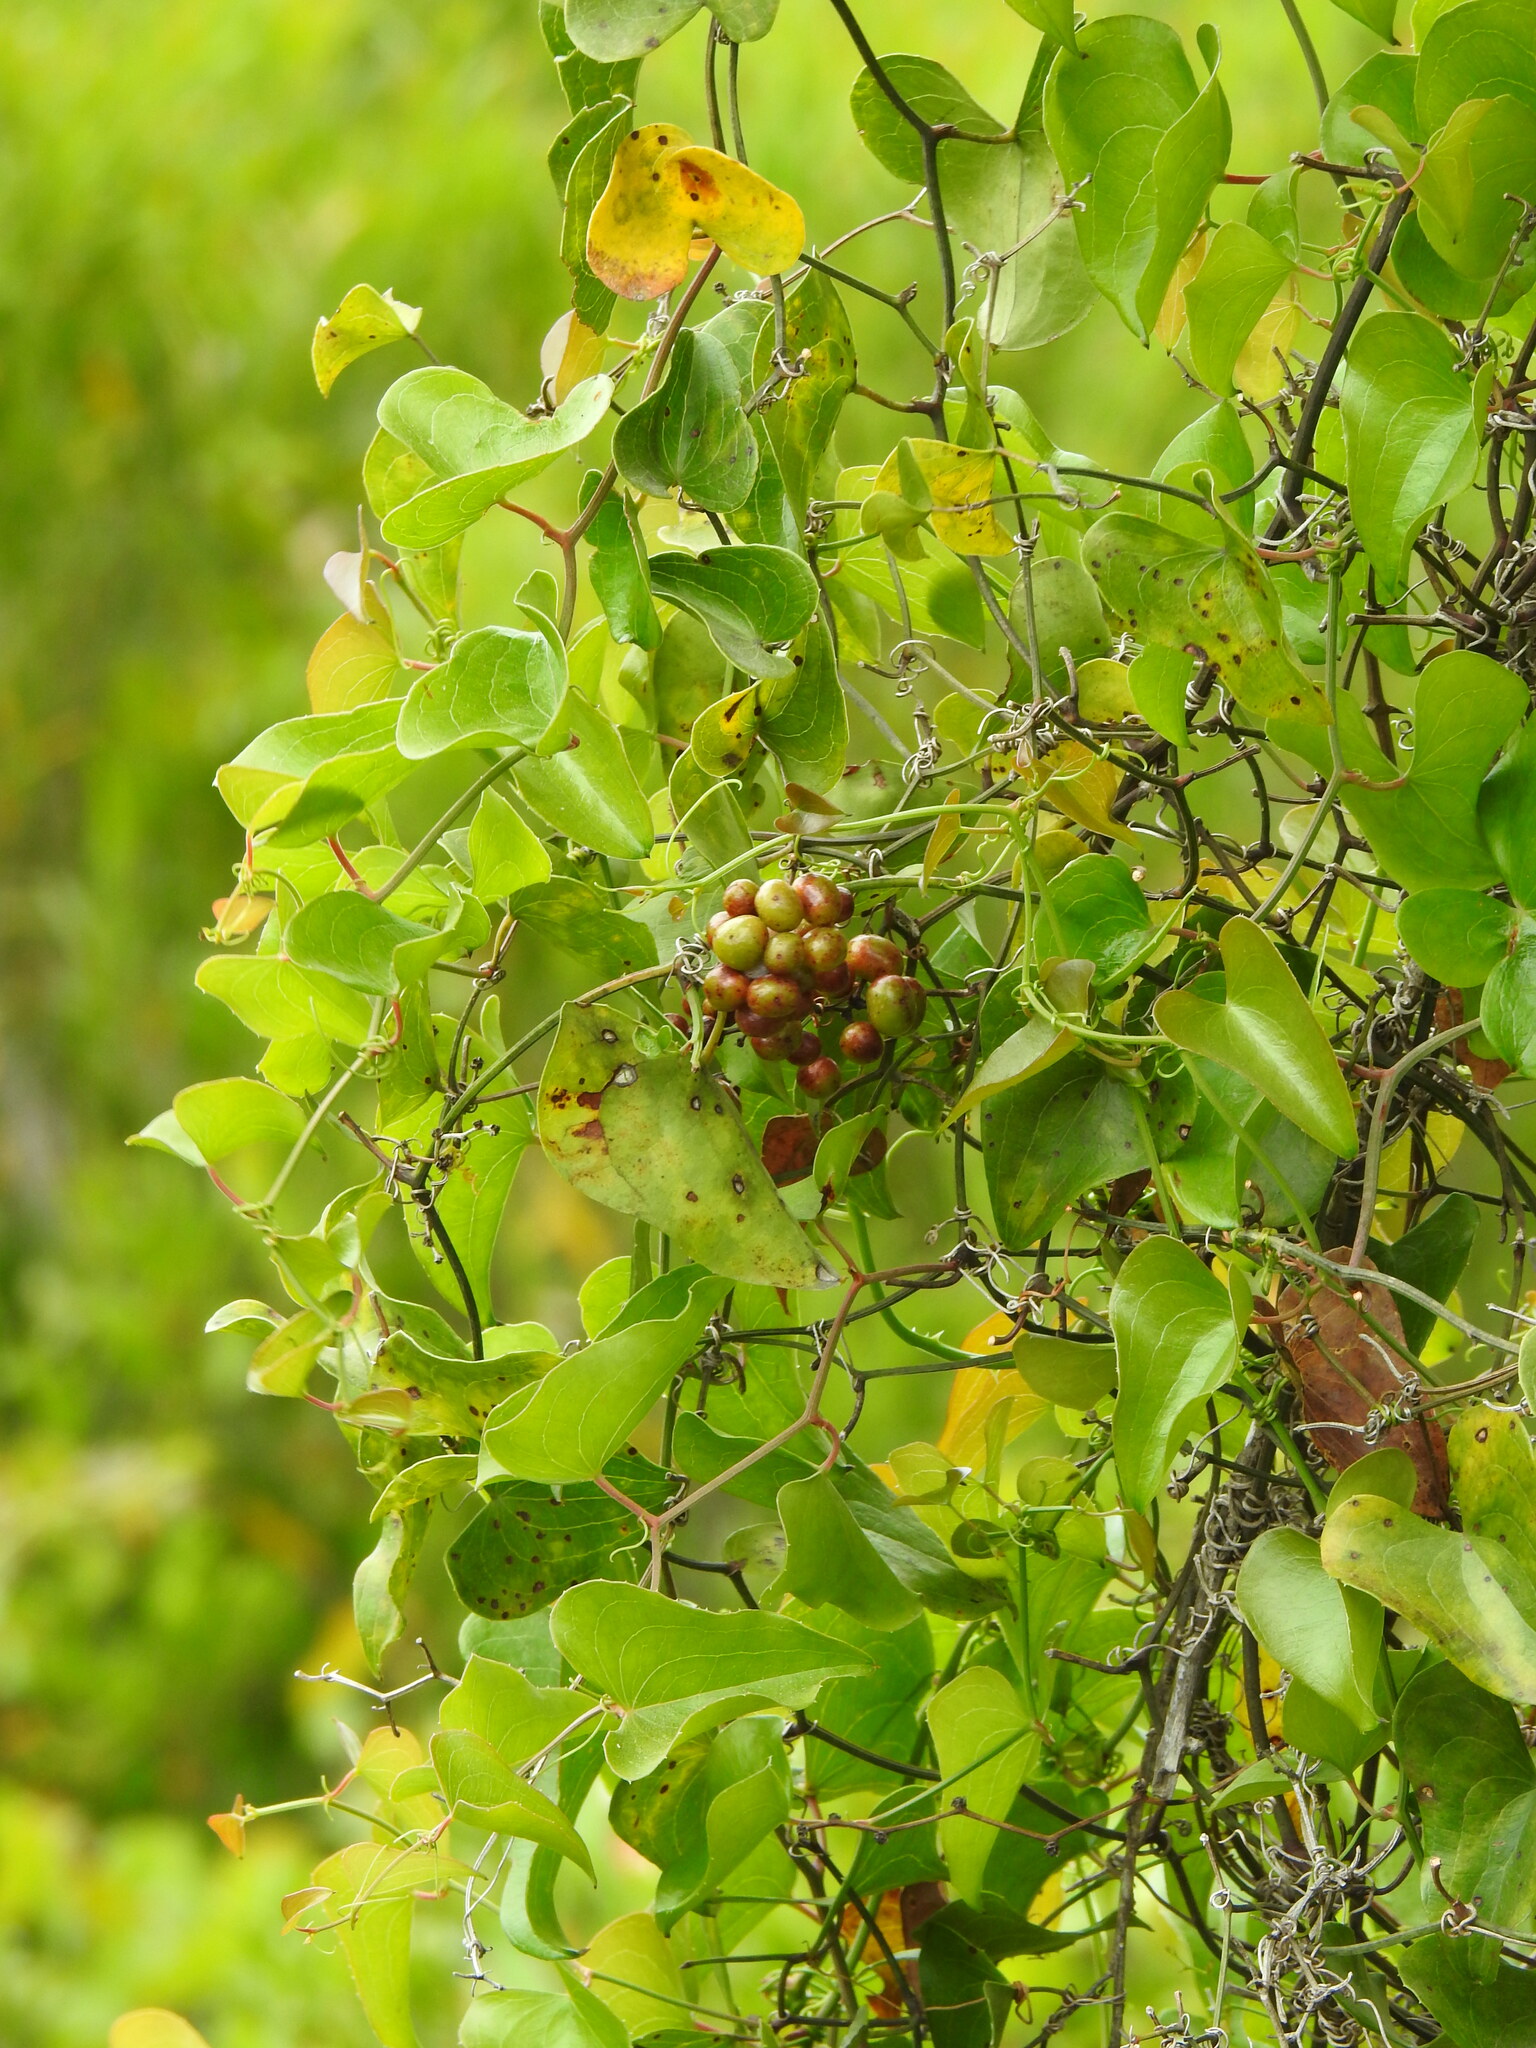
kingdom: Plantae
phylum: Tracheophyta
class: Liliopsida
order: Liliales
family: Smilacaceae
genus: Smilax
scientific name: Smilax aspera
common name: Common smilax
